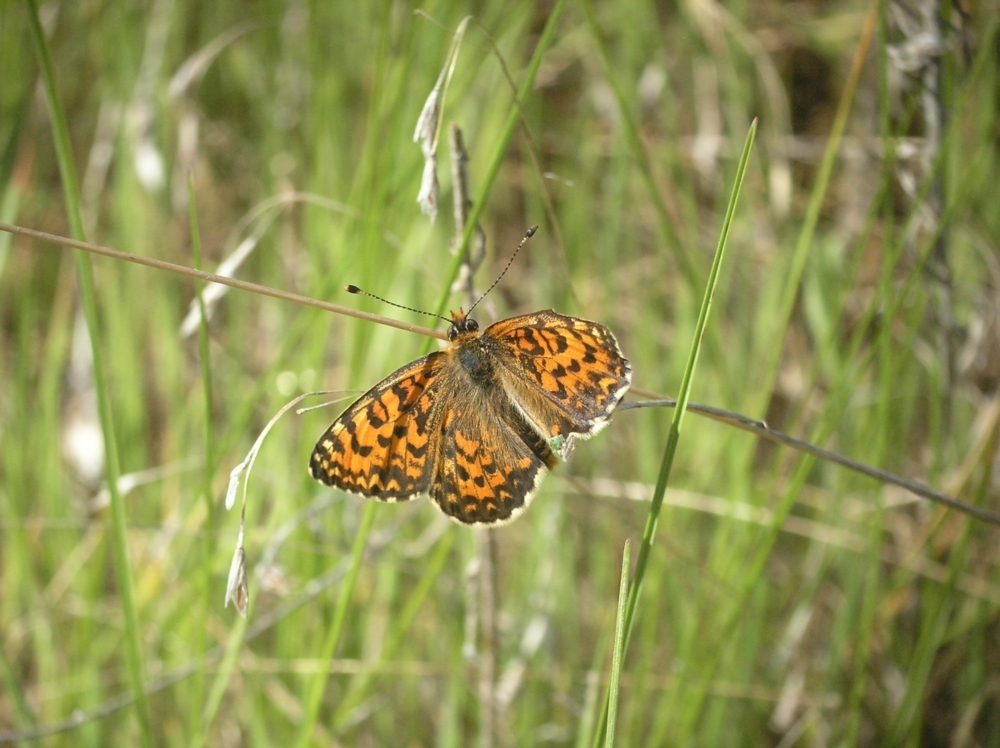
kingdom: Animalia
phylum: Arthropoda
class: Insecta
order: Lepidoptera
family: Nymphalidae
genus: Melitaea
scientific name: Melitaea trivia
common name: Lesser spotted fritillary
